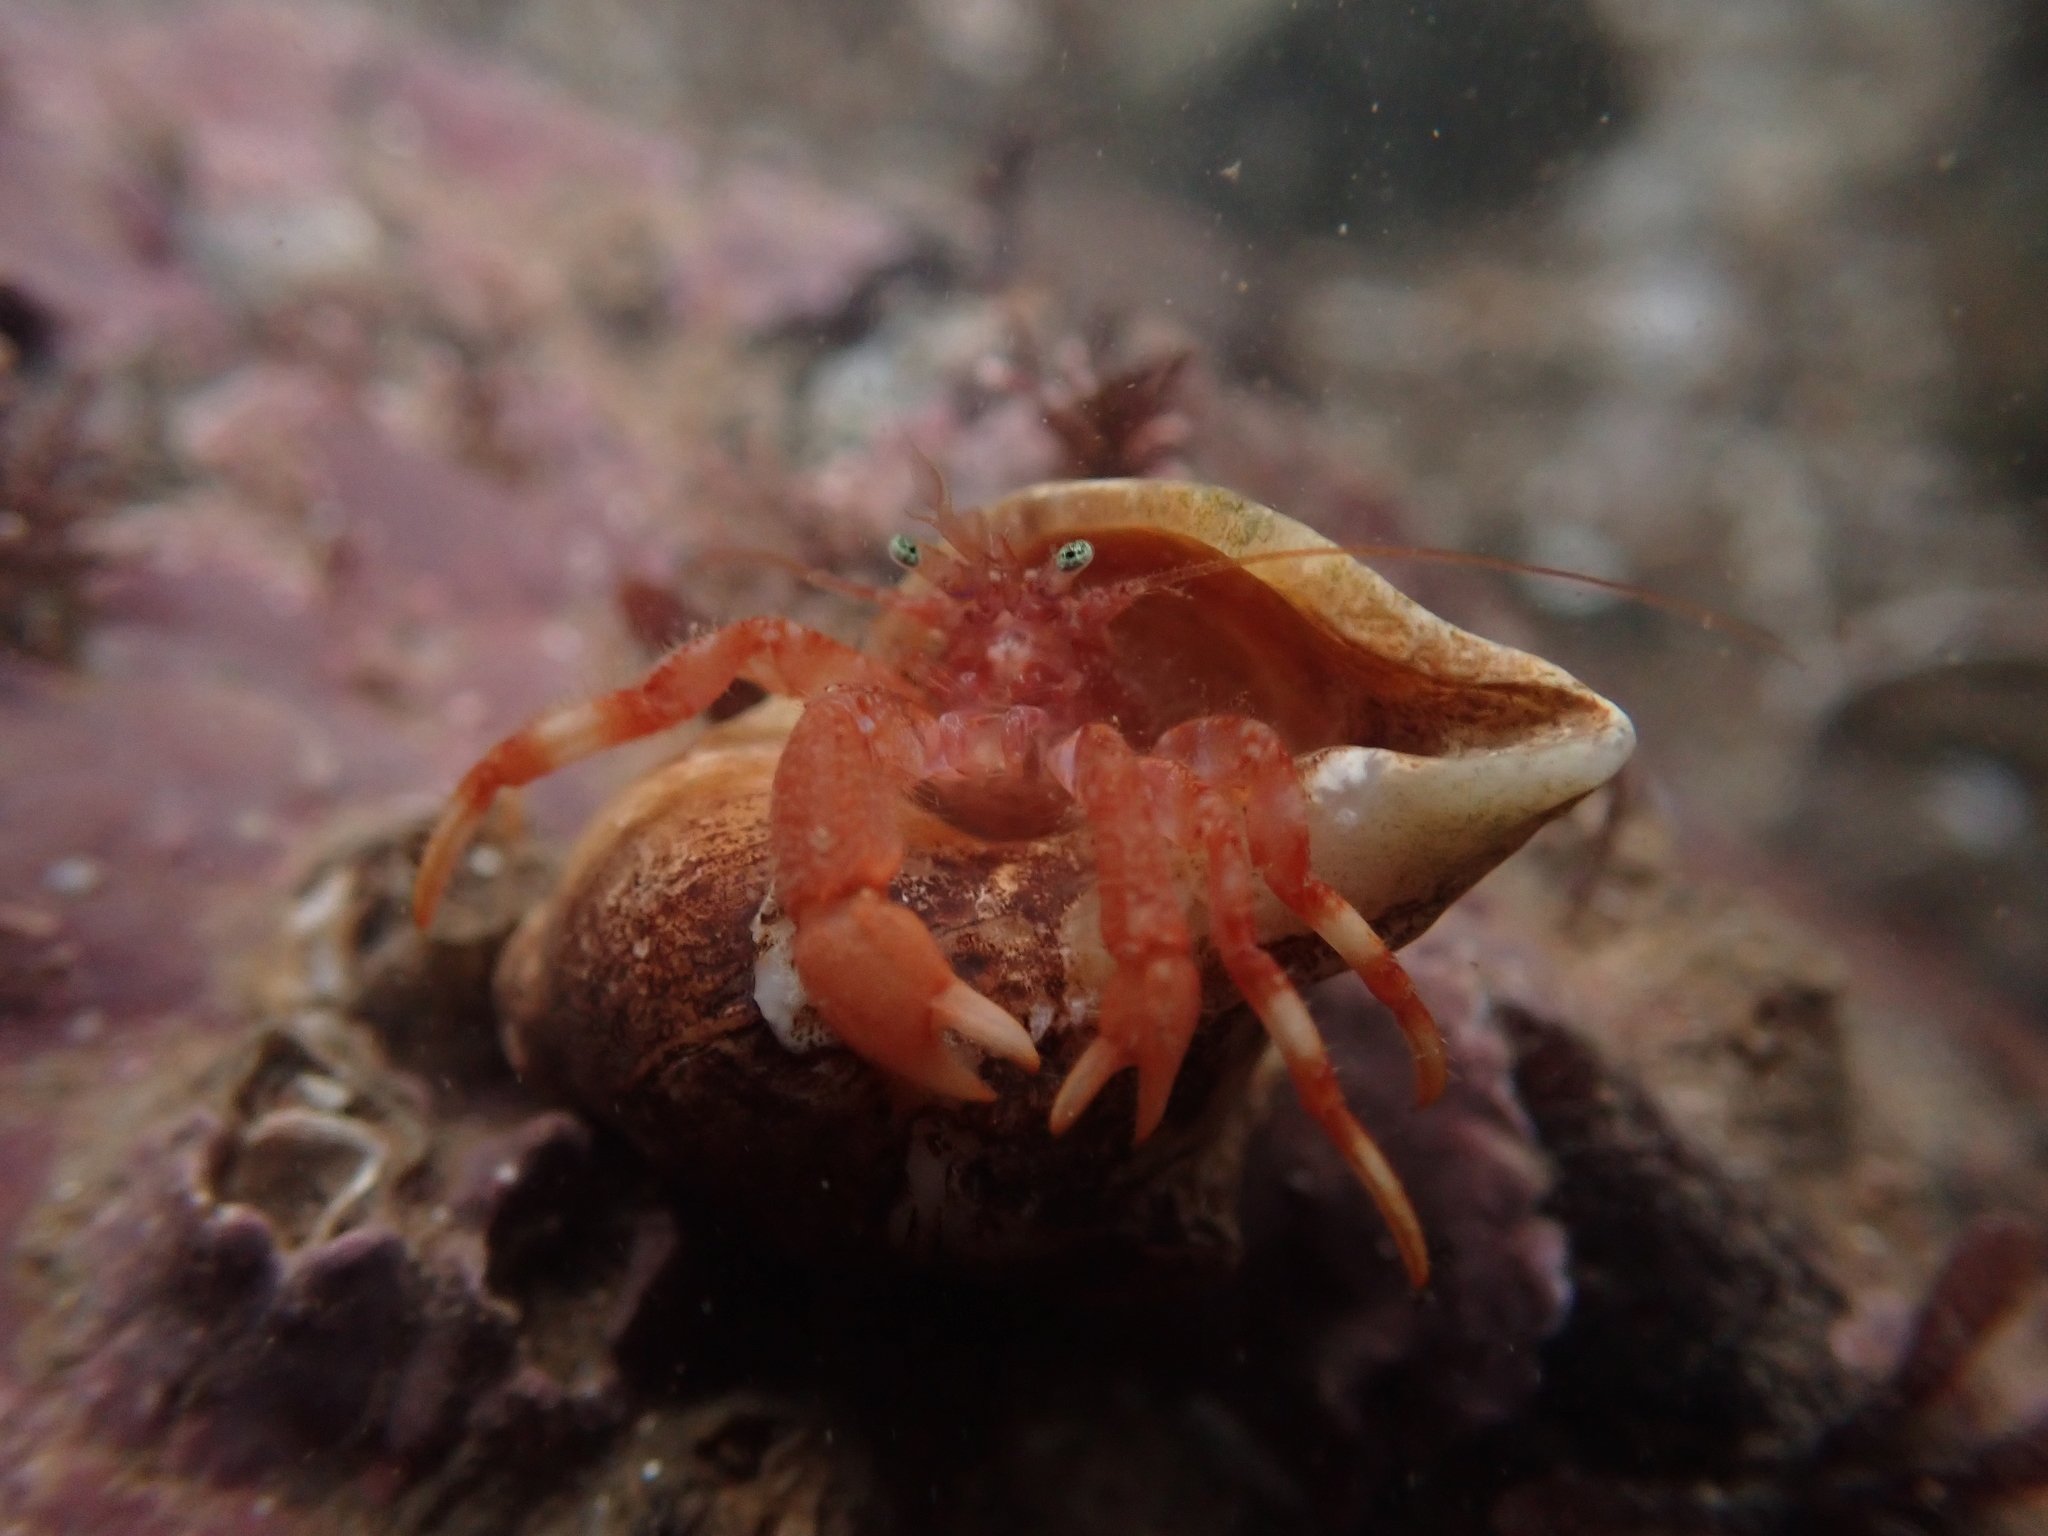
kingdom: Animalia
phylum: Arthropoda
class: Malacostraca
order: Decapoda
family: Paguridae
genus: Pagurus
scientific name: Pagurus pubescens
